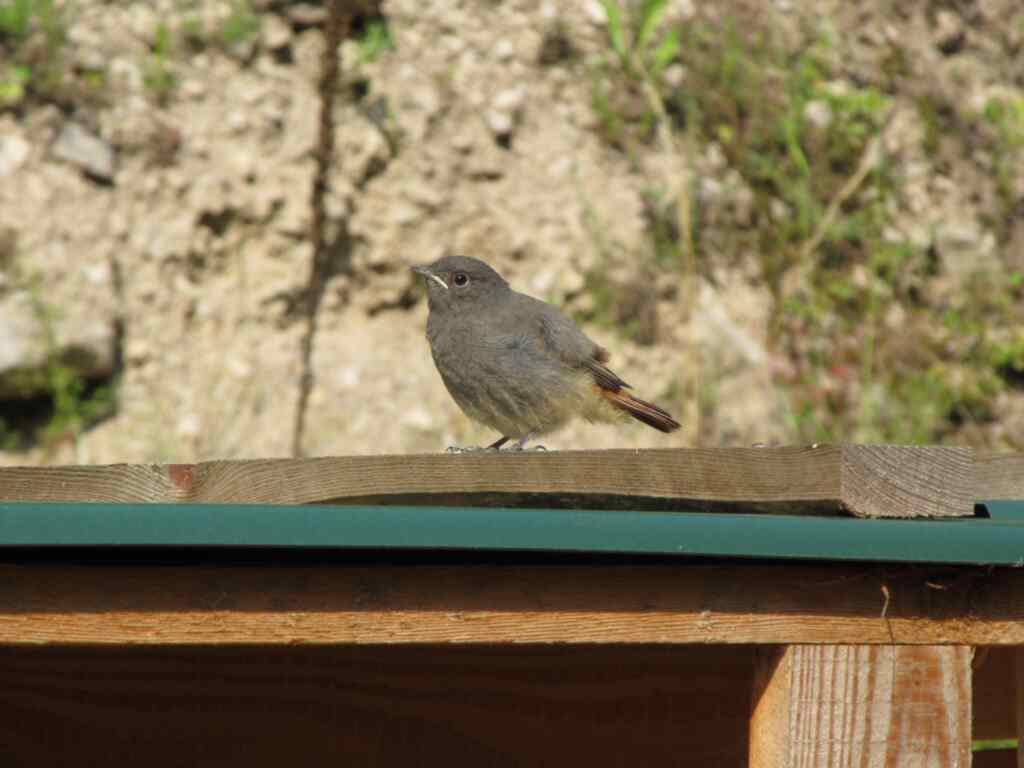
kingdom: Animalia
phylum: Chordata
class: Aves
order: Passeriformes
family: Muscicapidae
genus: Phoenicurus
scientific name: Phoenicurus ochruros
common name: Black redstart
